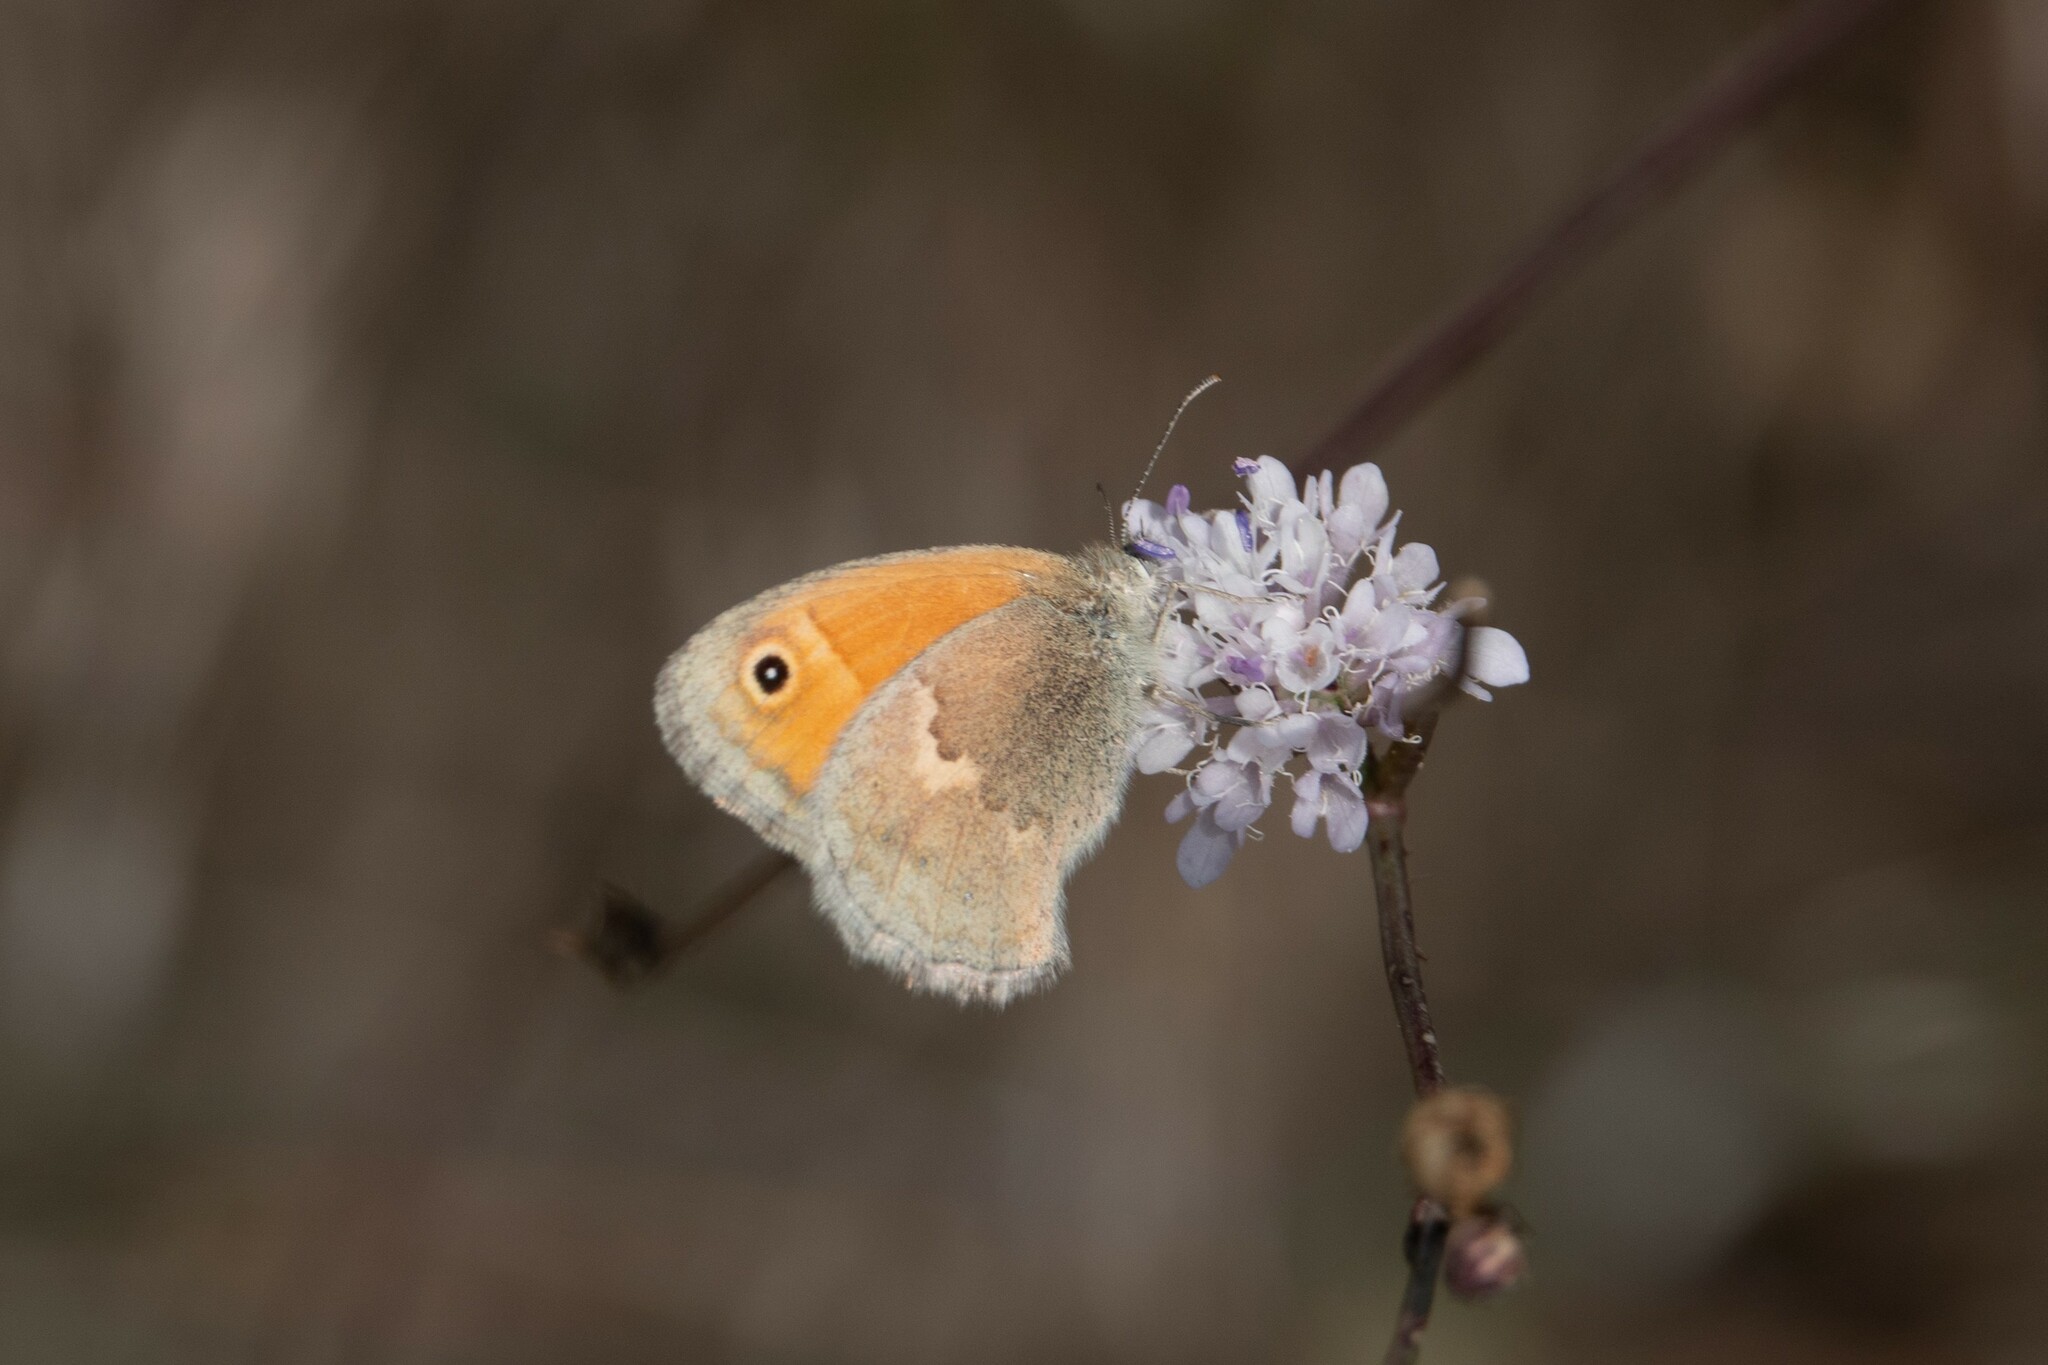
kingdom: Animalia
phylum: Arthropoda
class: Insecta
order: Lepidoptera
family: Nymphalidae
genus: Coenonympha
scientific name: Coenonympha pamphilus
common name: Small heath
